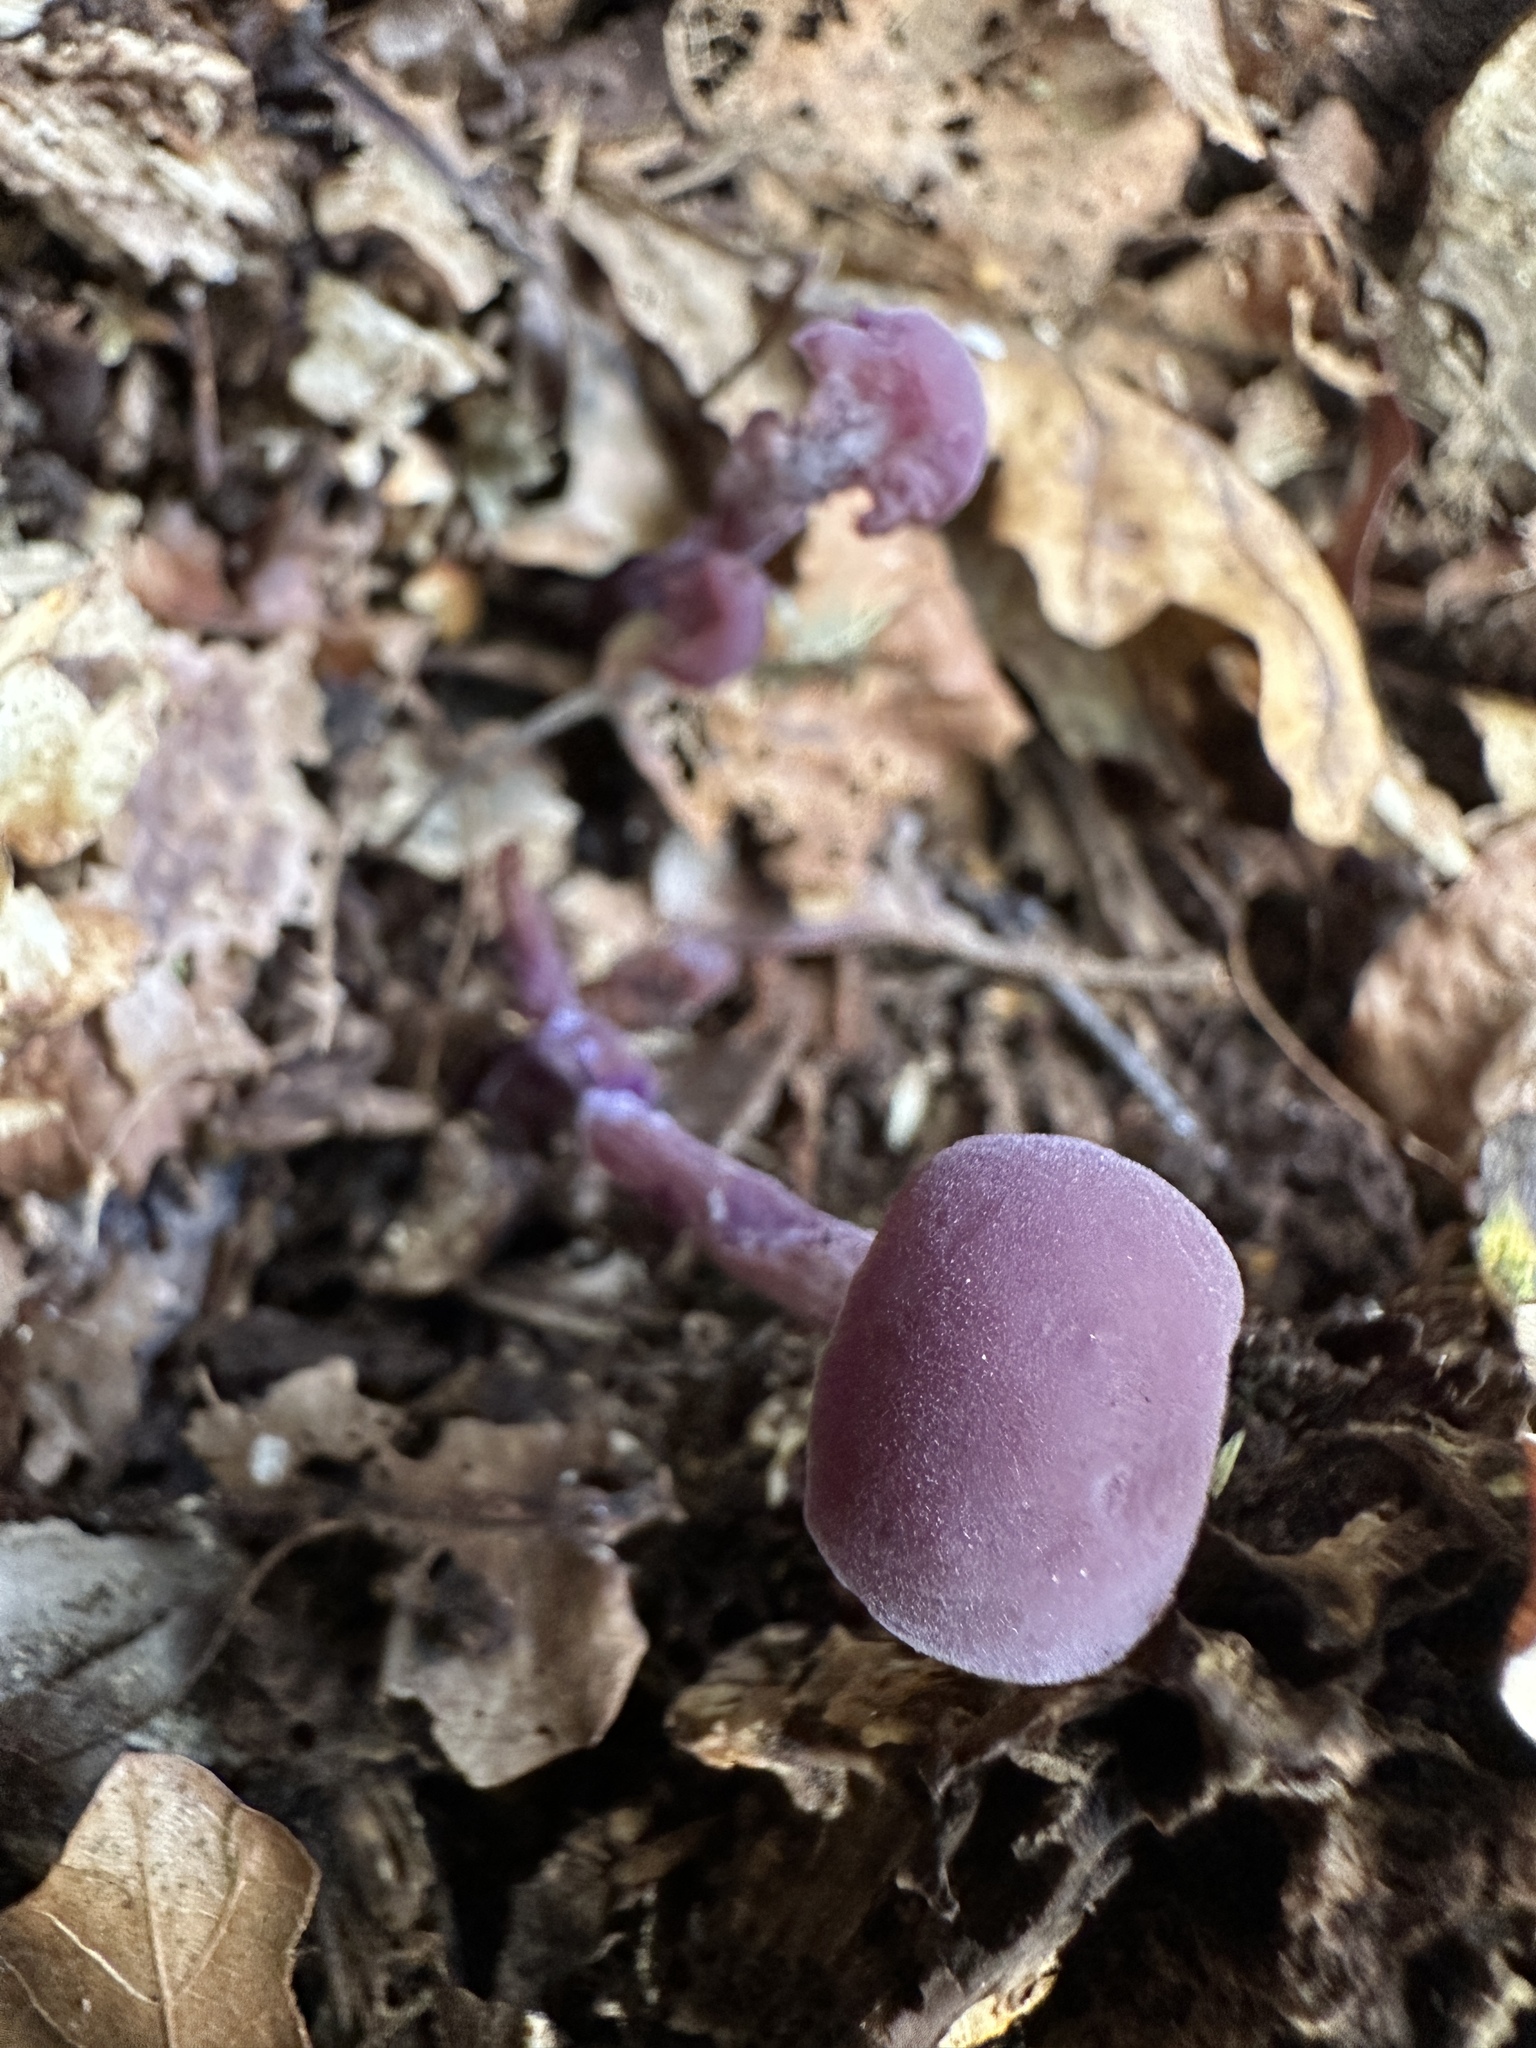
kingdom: Fungi
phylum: Basidiomycota
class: Agaricomycetes
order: Agaricales
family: Hydnangiaceae
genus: Laccaria
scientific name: Laccaria amethystina
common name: Amethyst deceiver
